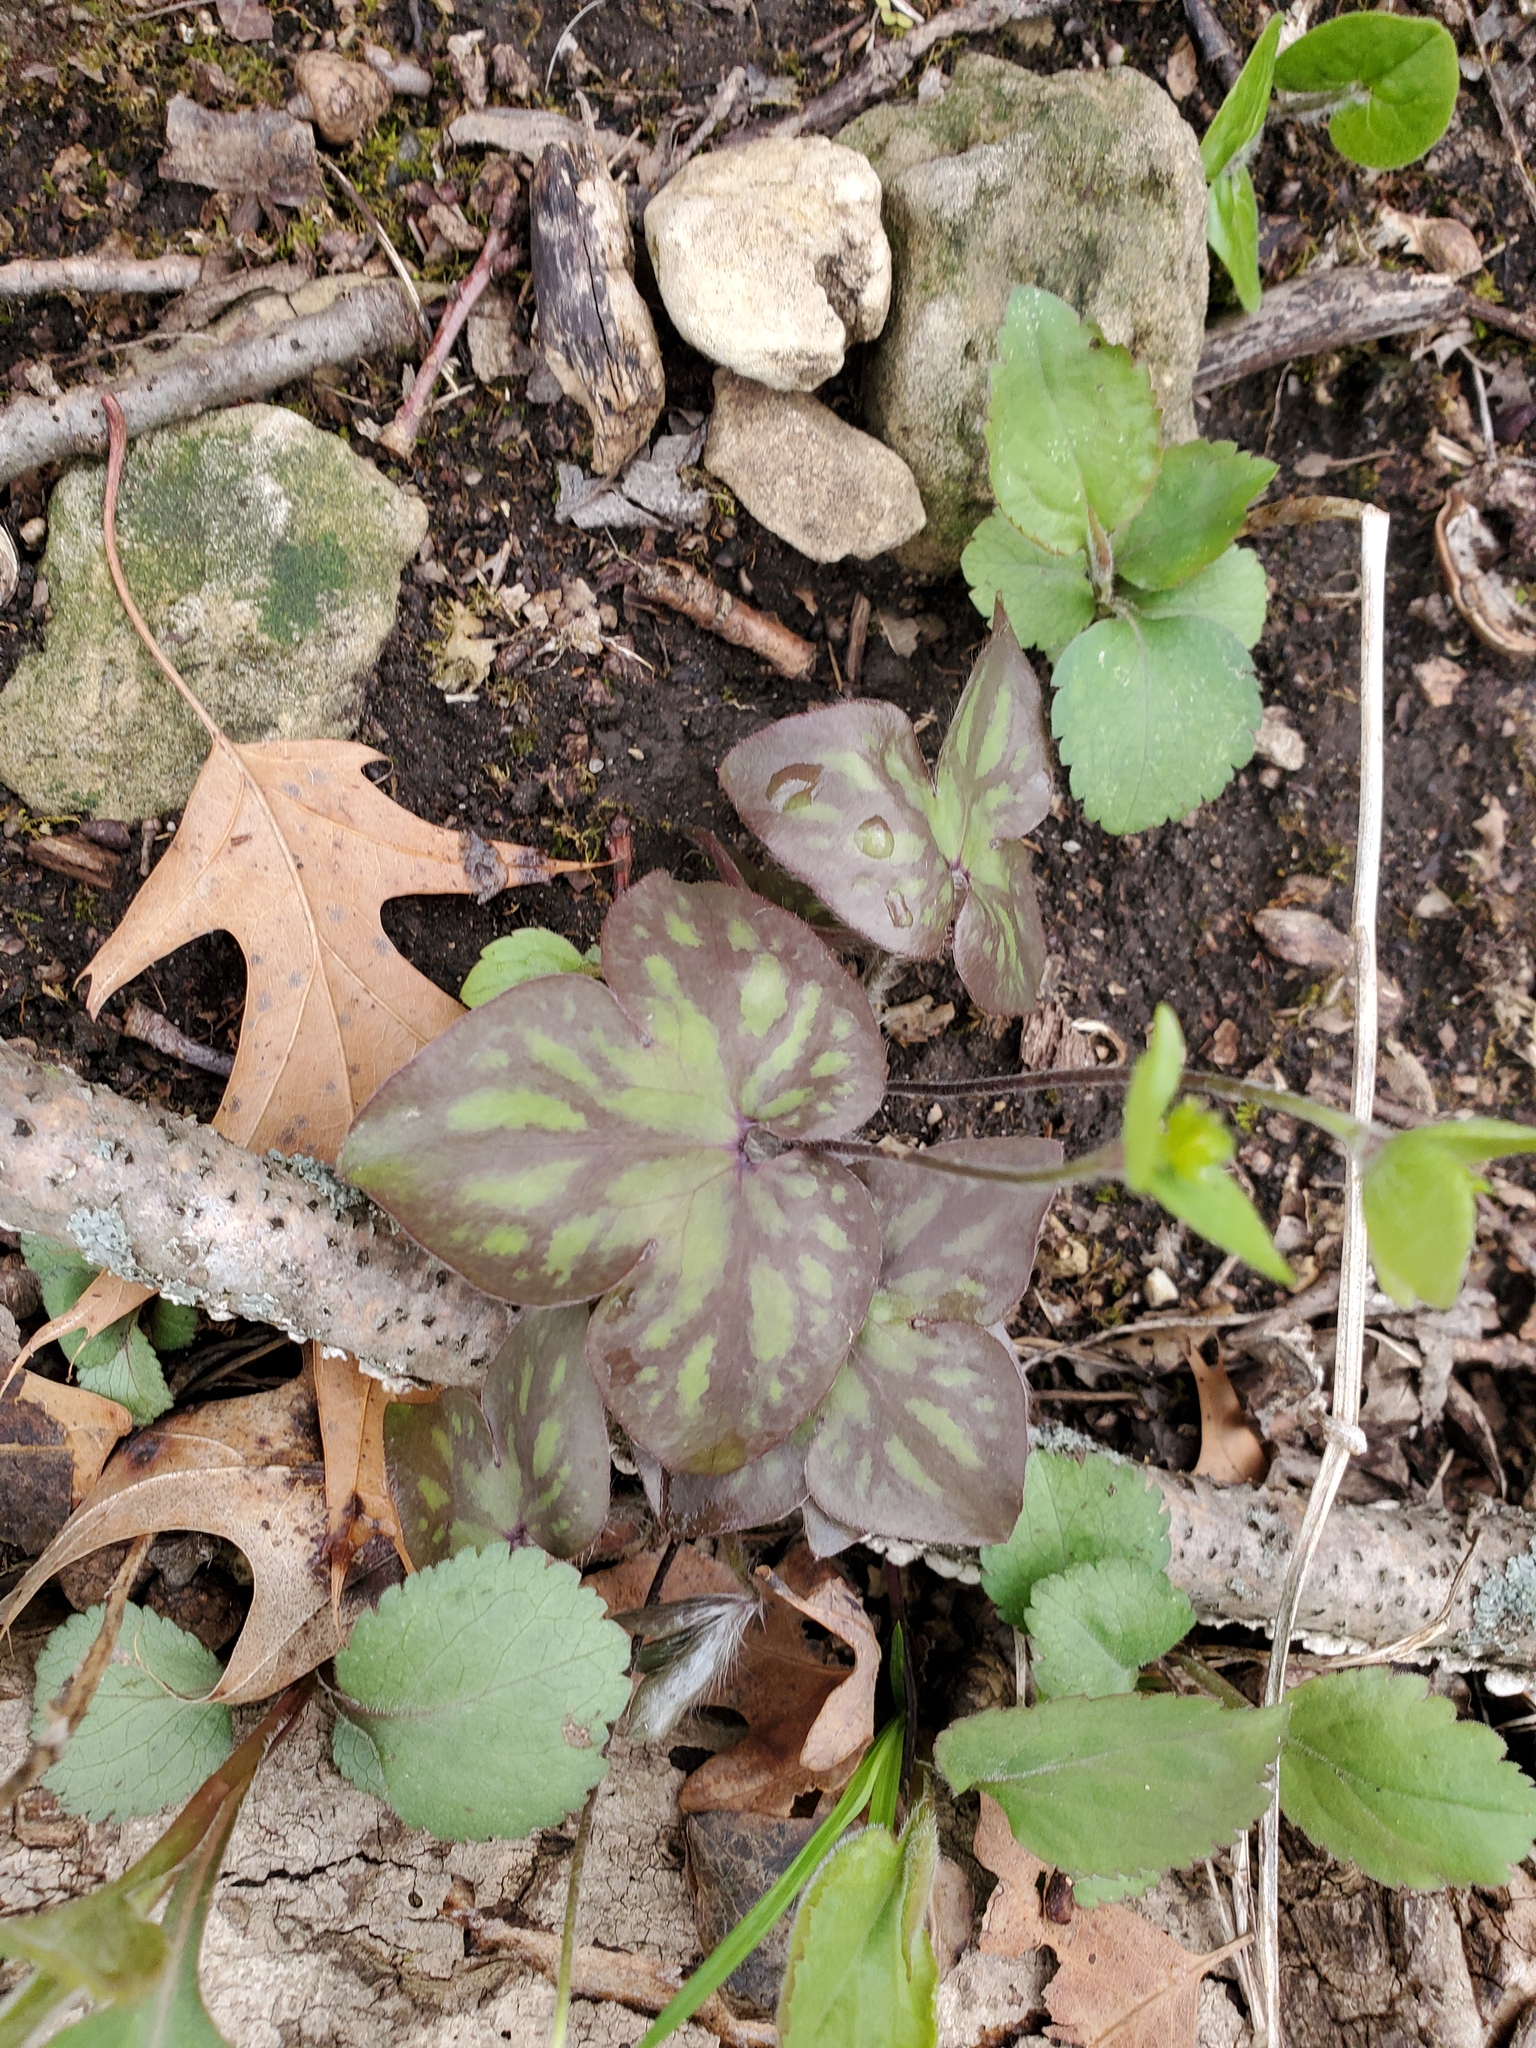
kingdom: Plantae
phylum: Tracheophyta
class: Magnoliopsida
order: Ranunculales
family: Ranunculaceae
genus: Hepatica
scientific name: Hepatica acutiloba
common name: Sharp-lobed hepatica
